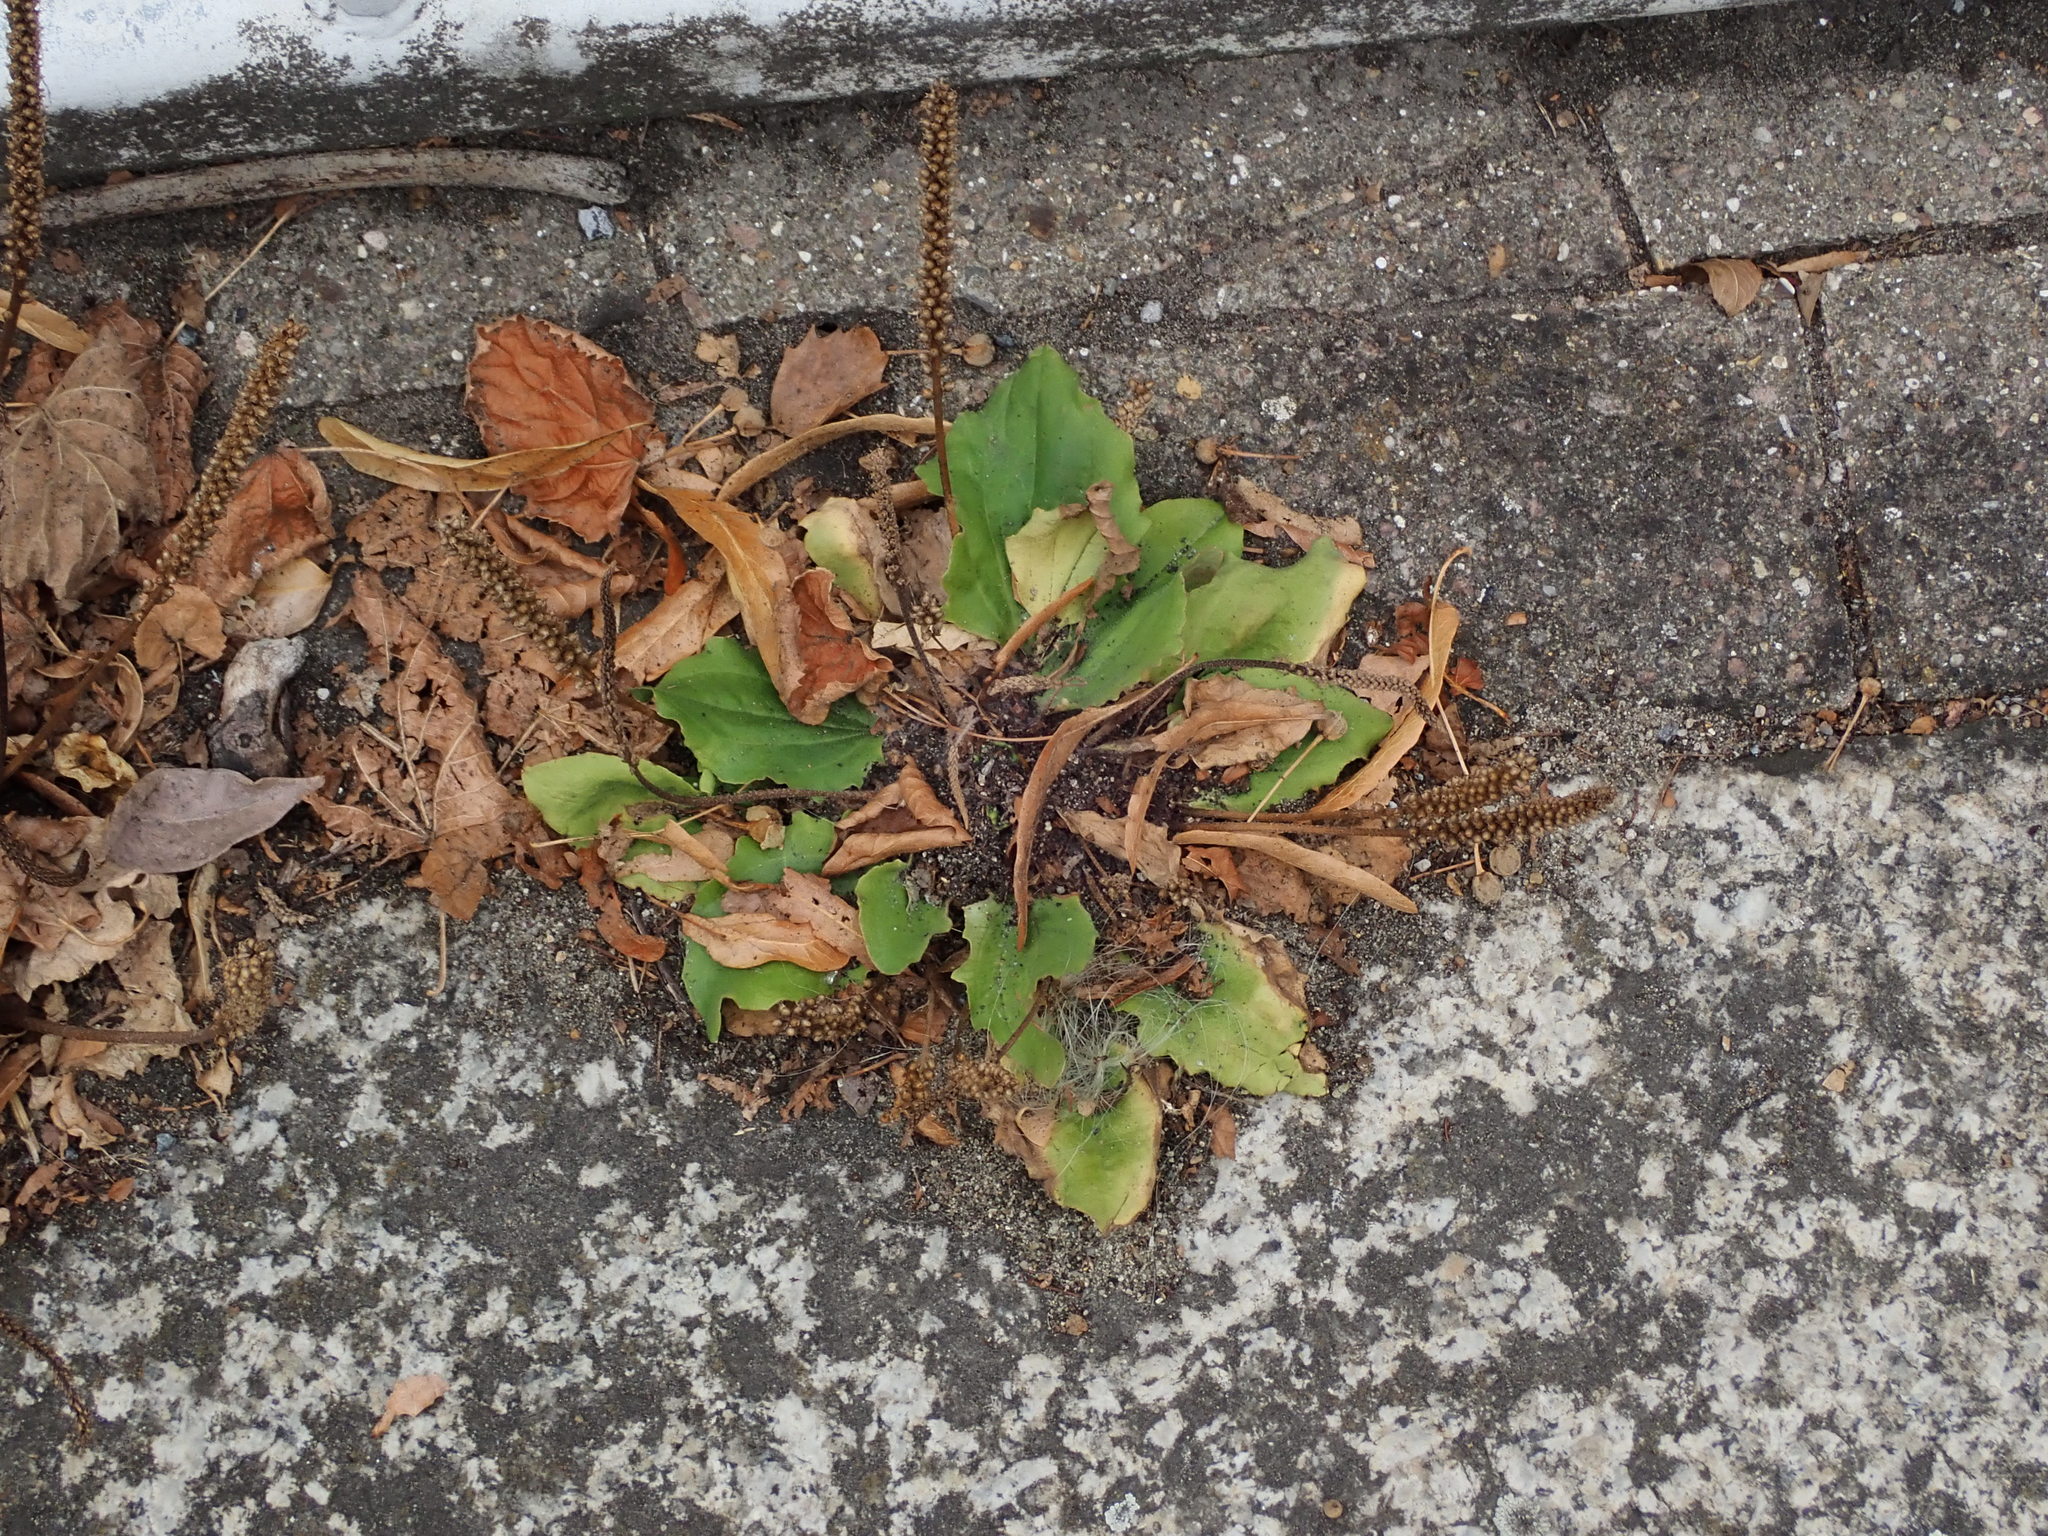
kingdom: Plantae
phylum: Tracheophyta
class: Magnoliopsida
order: Lamiales
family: Plantaginaceae
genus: Plantago
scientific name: Plantago major
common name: Common plantain
